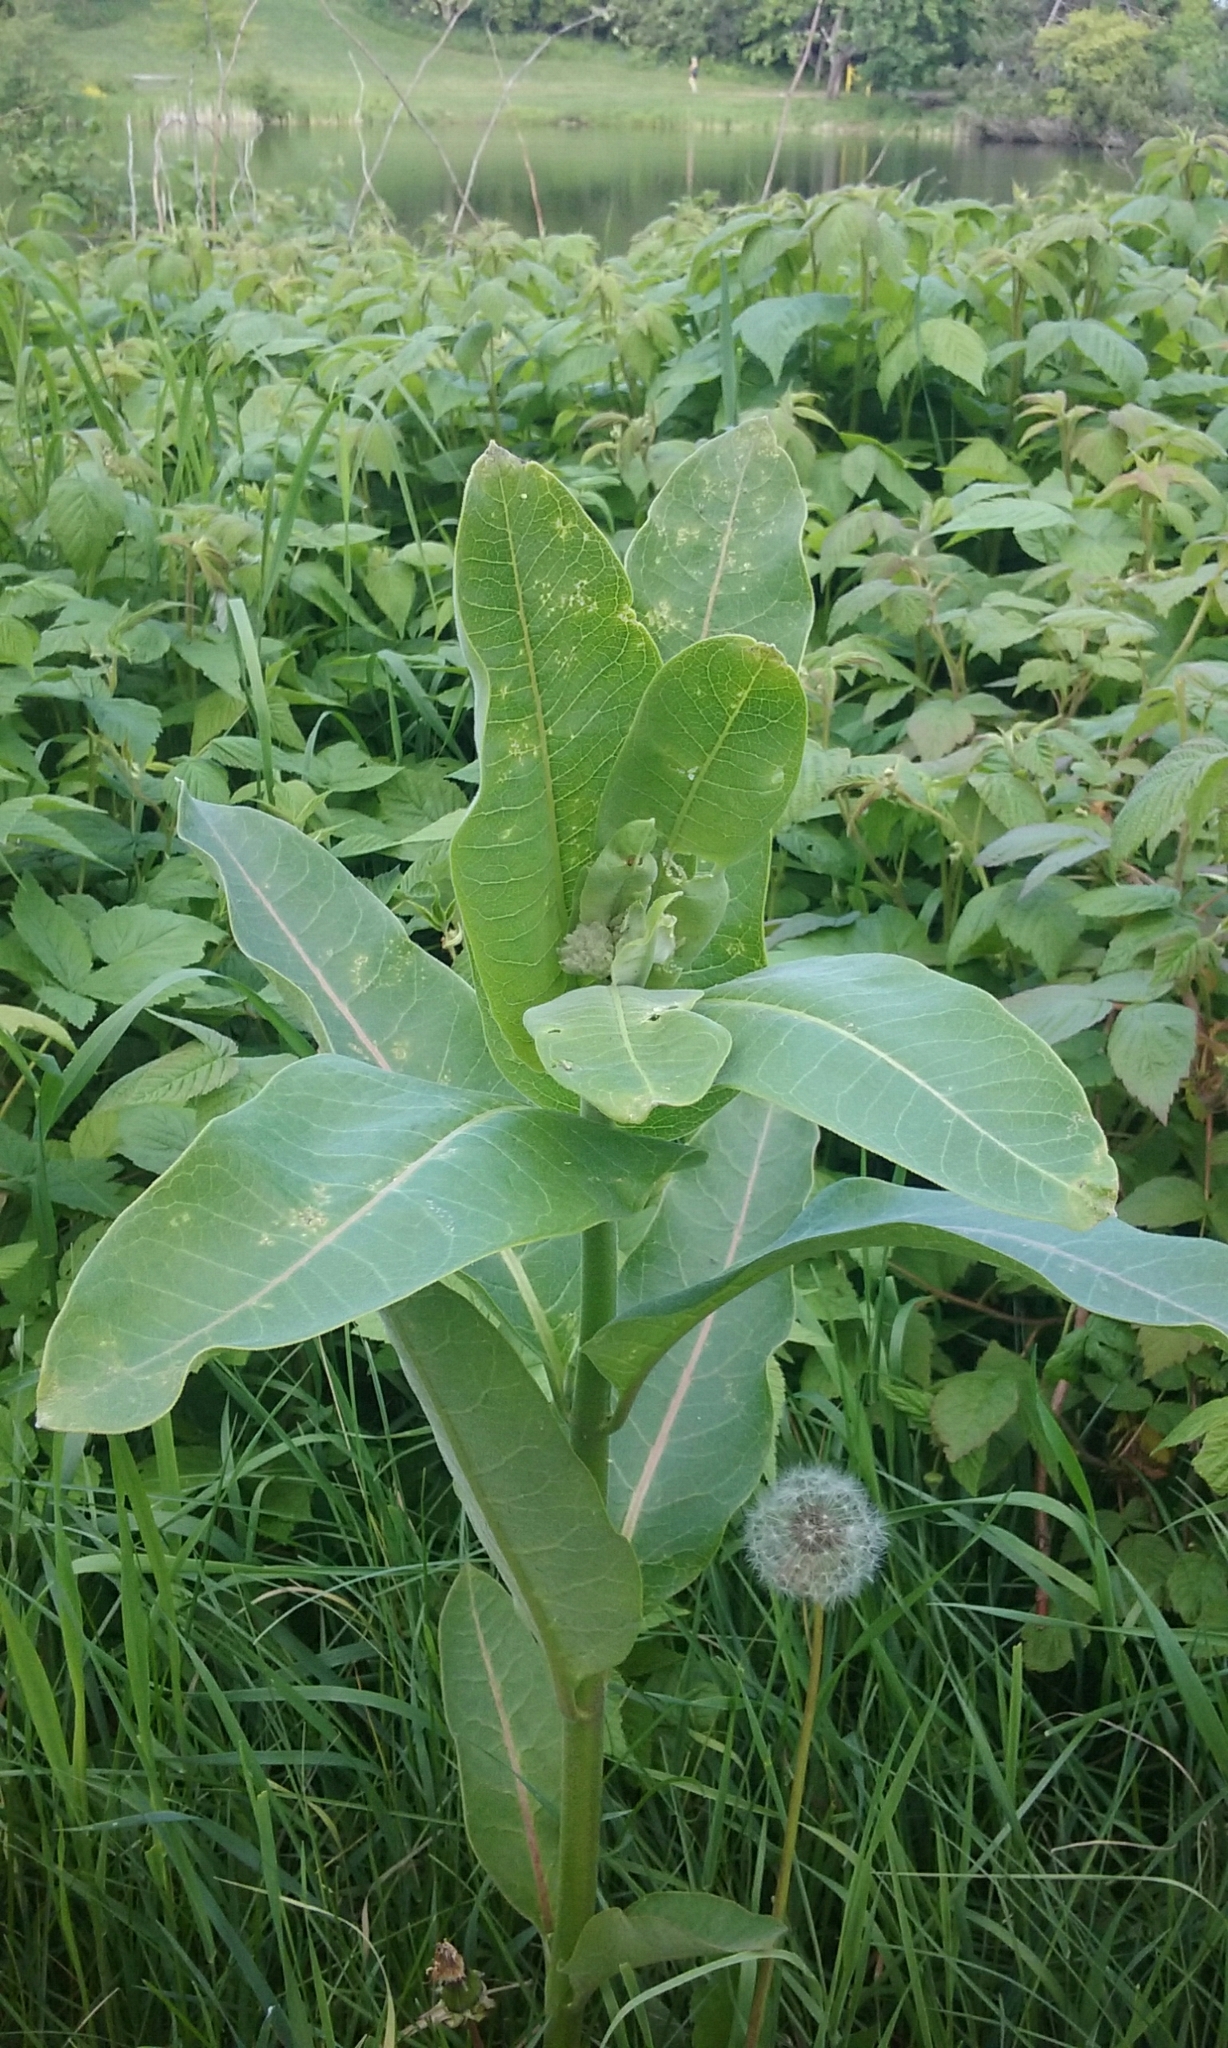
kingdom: Plantae
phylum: Tracheophyta
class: Magnoliopsida
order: Gentianales
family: Apocynaceae
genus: Asclepias
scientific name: Asclepias syriaca
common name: Common milkweed
